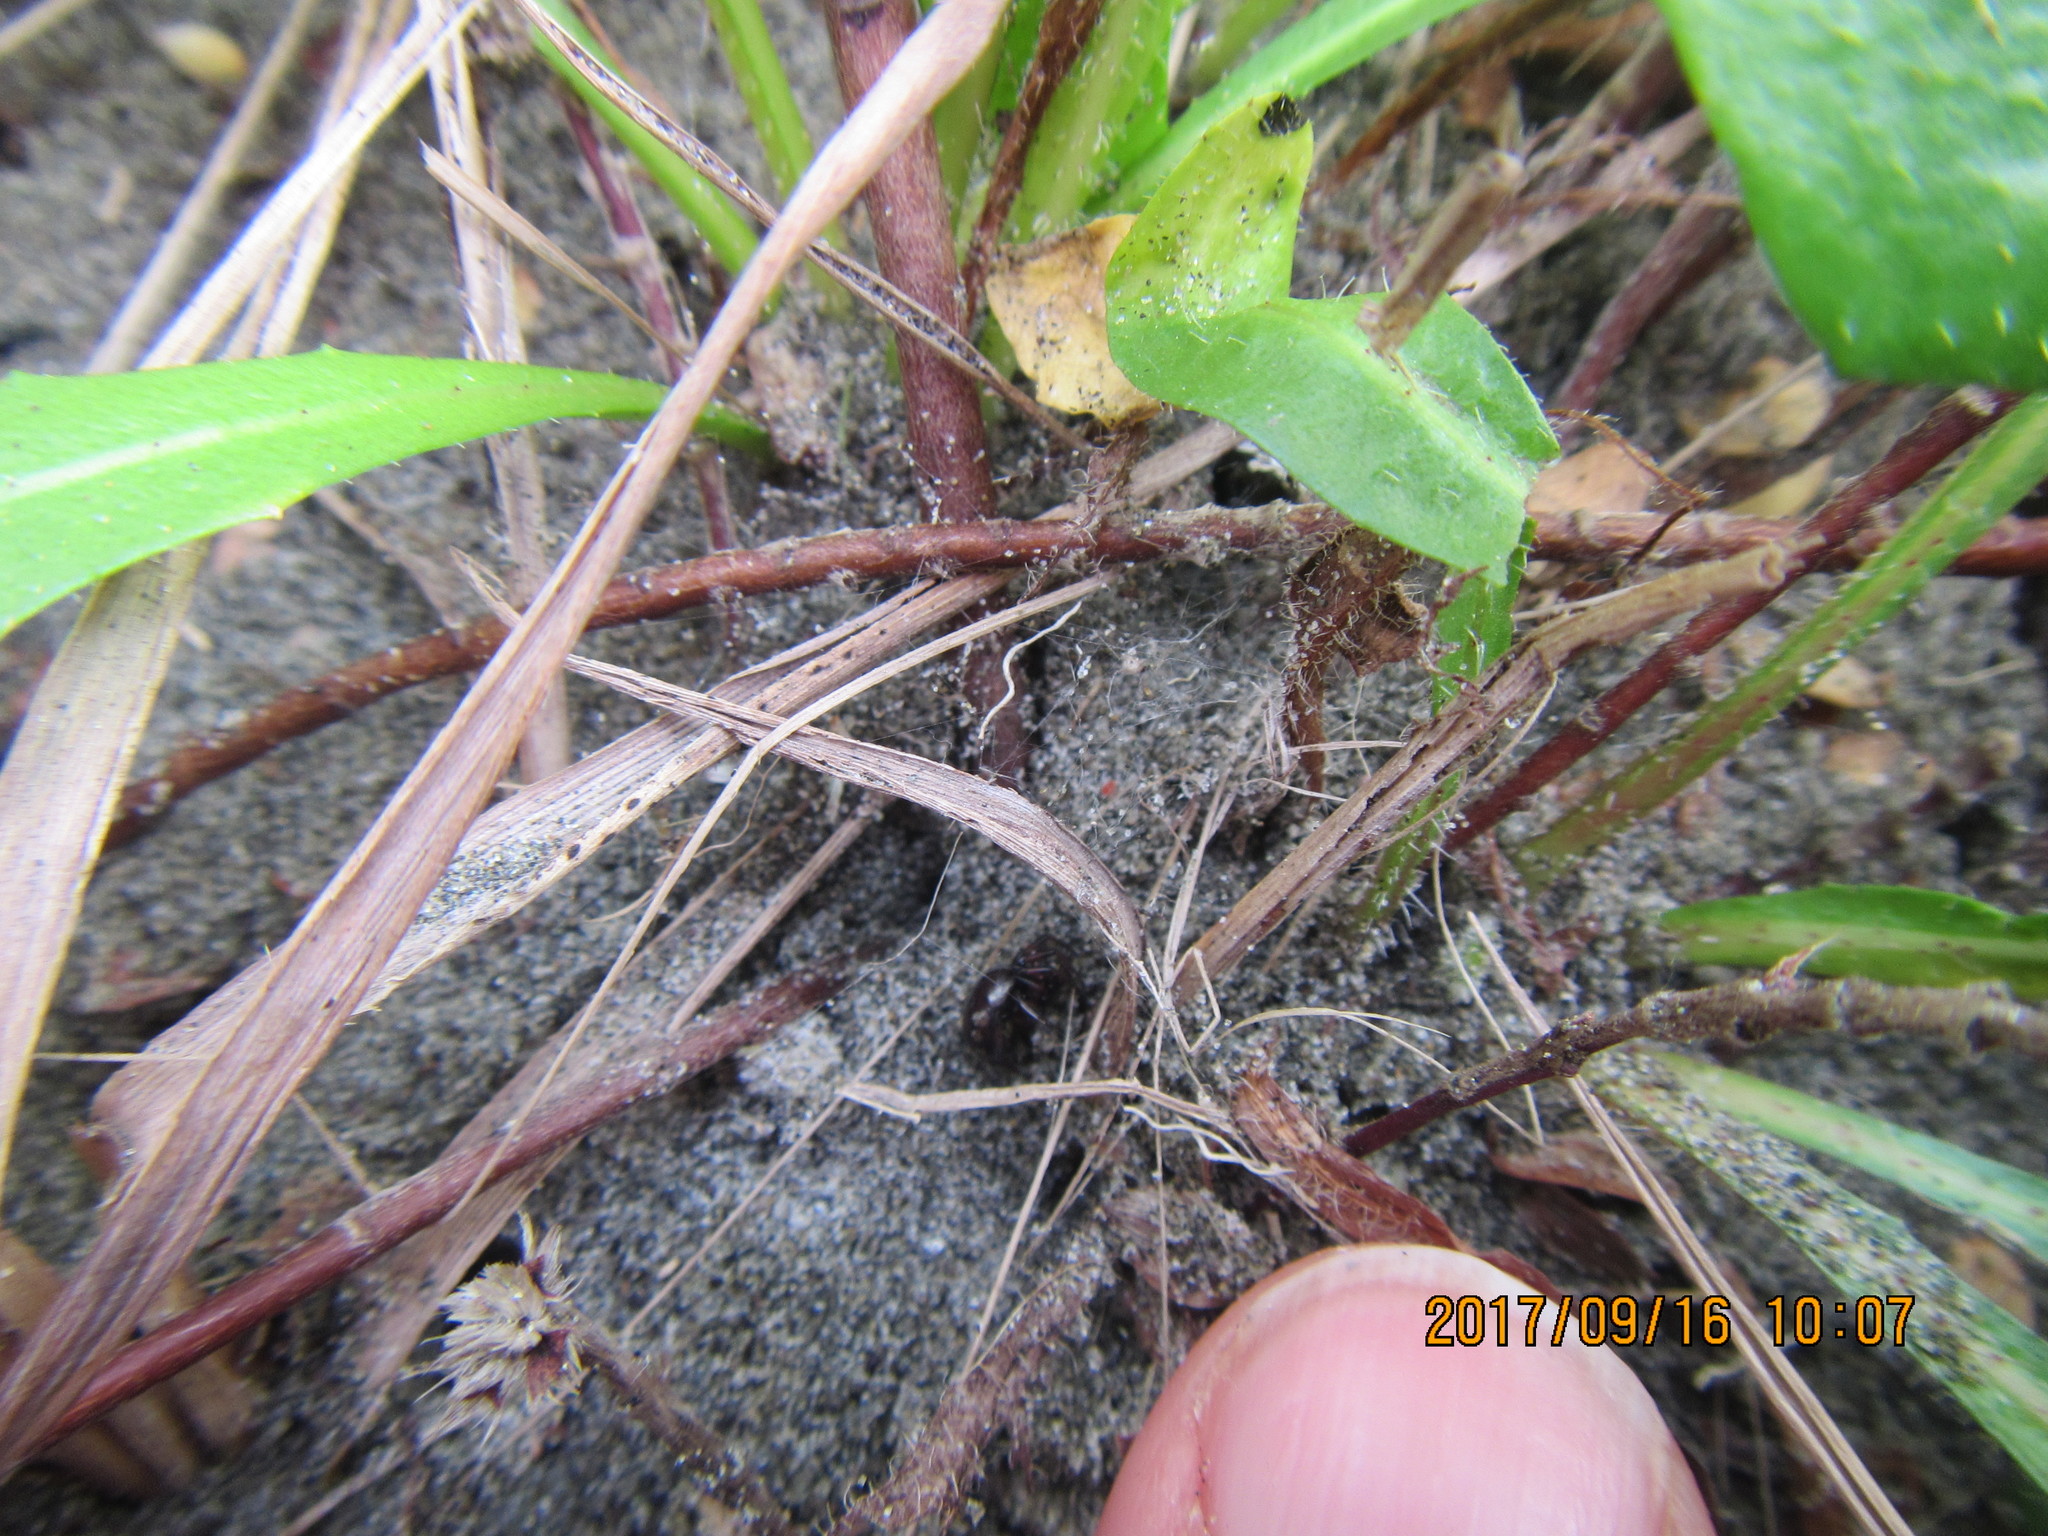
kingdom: Animalia
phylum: Arthropoda
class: Arachnida
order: Araneae
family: Theridiidae
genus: Steatoda
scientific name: Steatoda lepida
